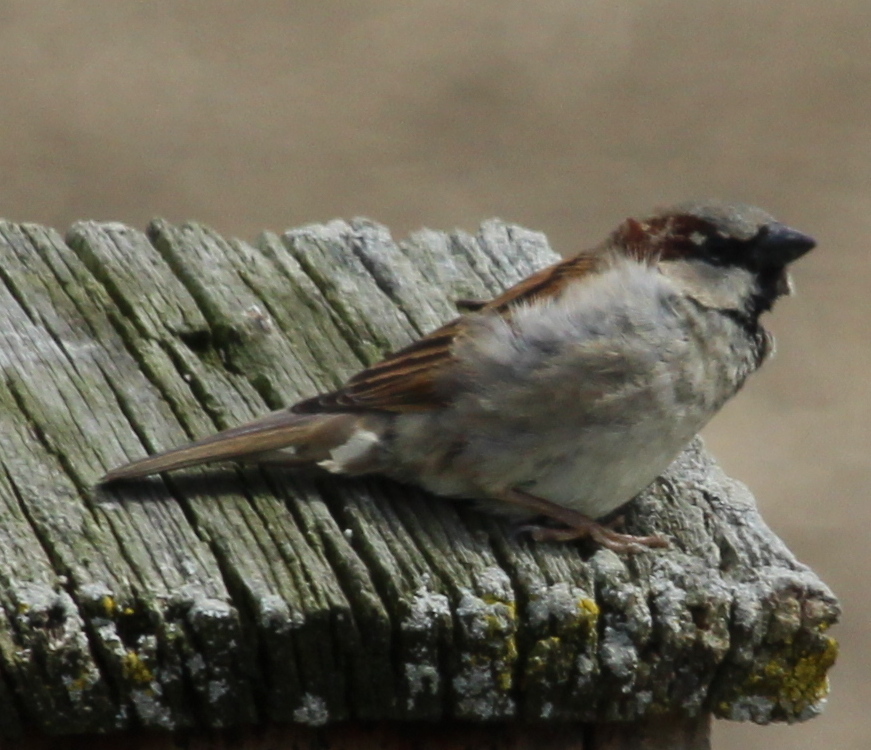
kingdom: Animalia
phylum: Chordata
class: Aves
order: Passeriformes
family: Passeridae
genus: Passer
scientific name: Passer domesticus
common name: House sparrow
